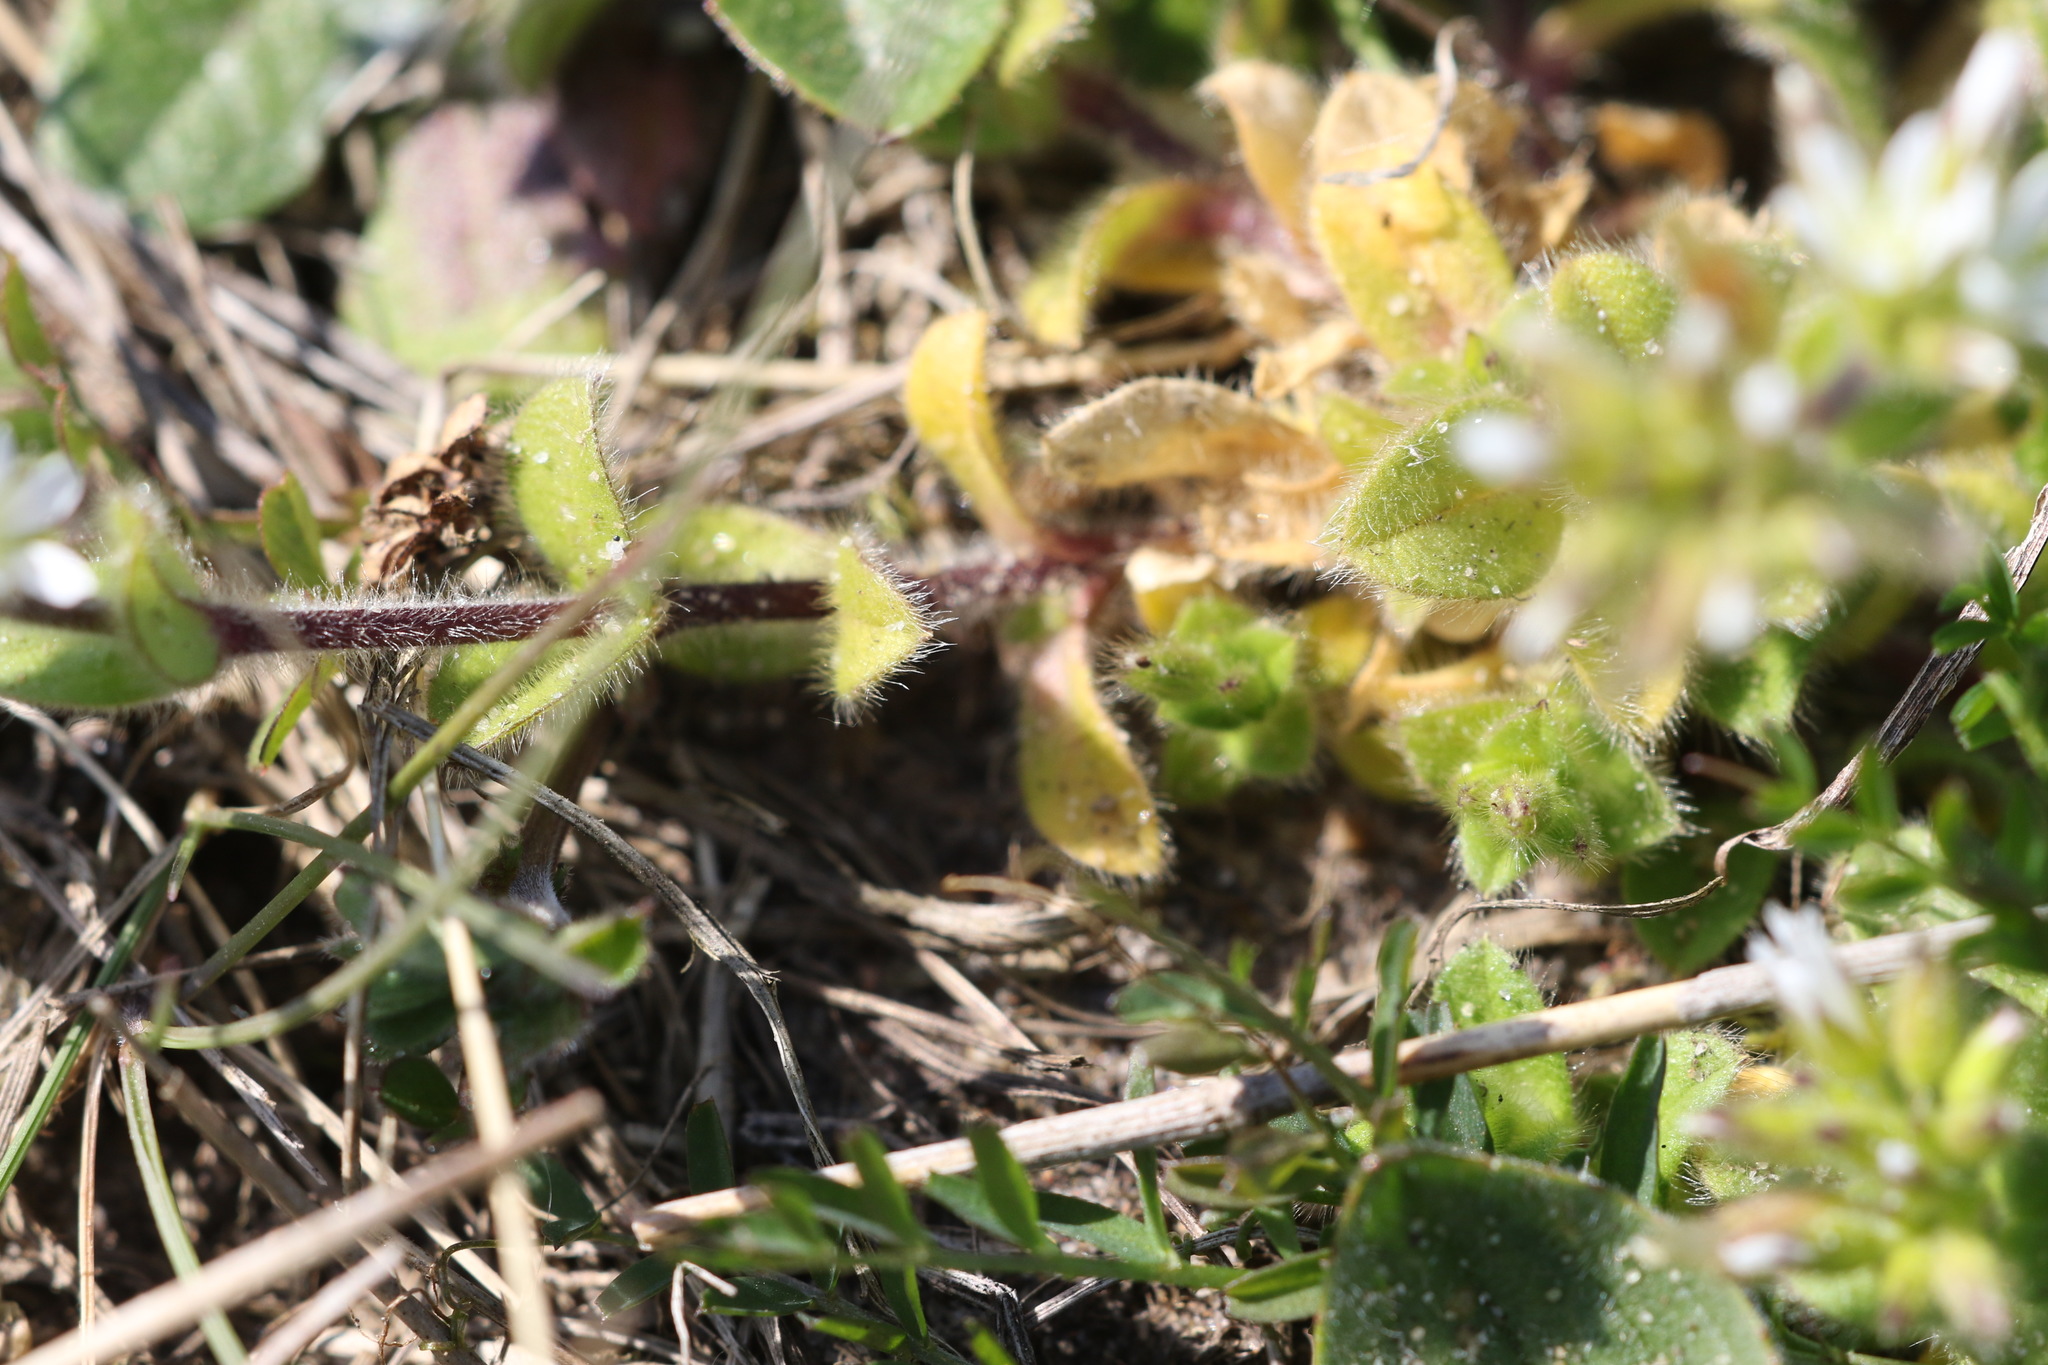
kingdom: Plantae
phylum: Tracheophyta
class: Magnoliopsida
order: Caryophyllales
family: Caryophyllaceae
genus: Cerastium
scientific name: Cerastium glomeratum
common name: Sticky chickweed
